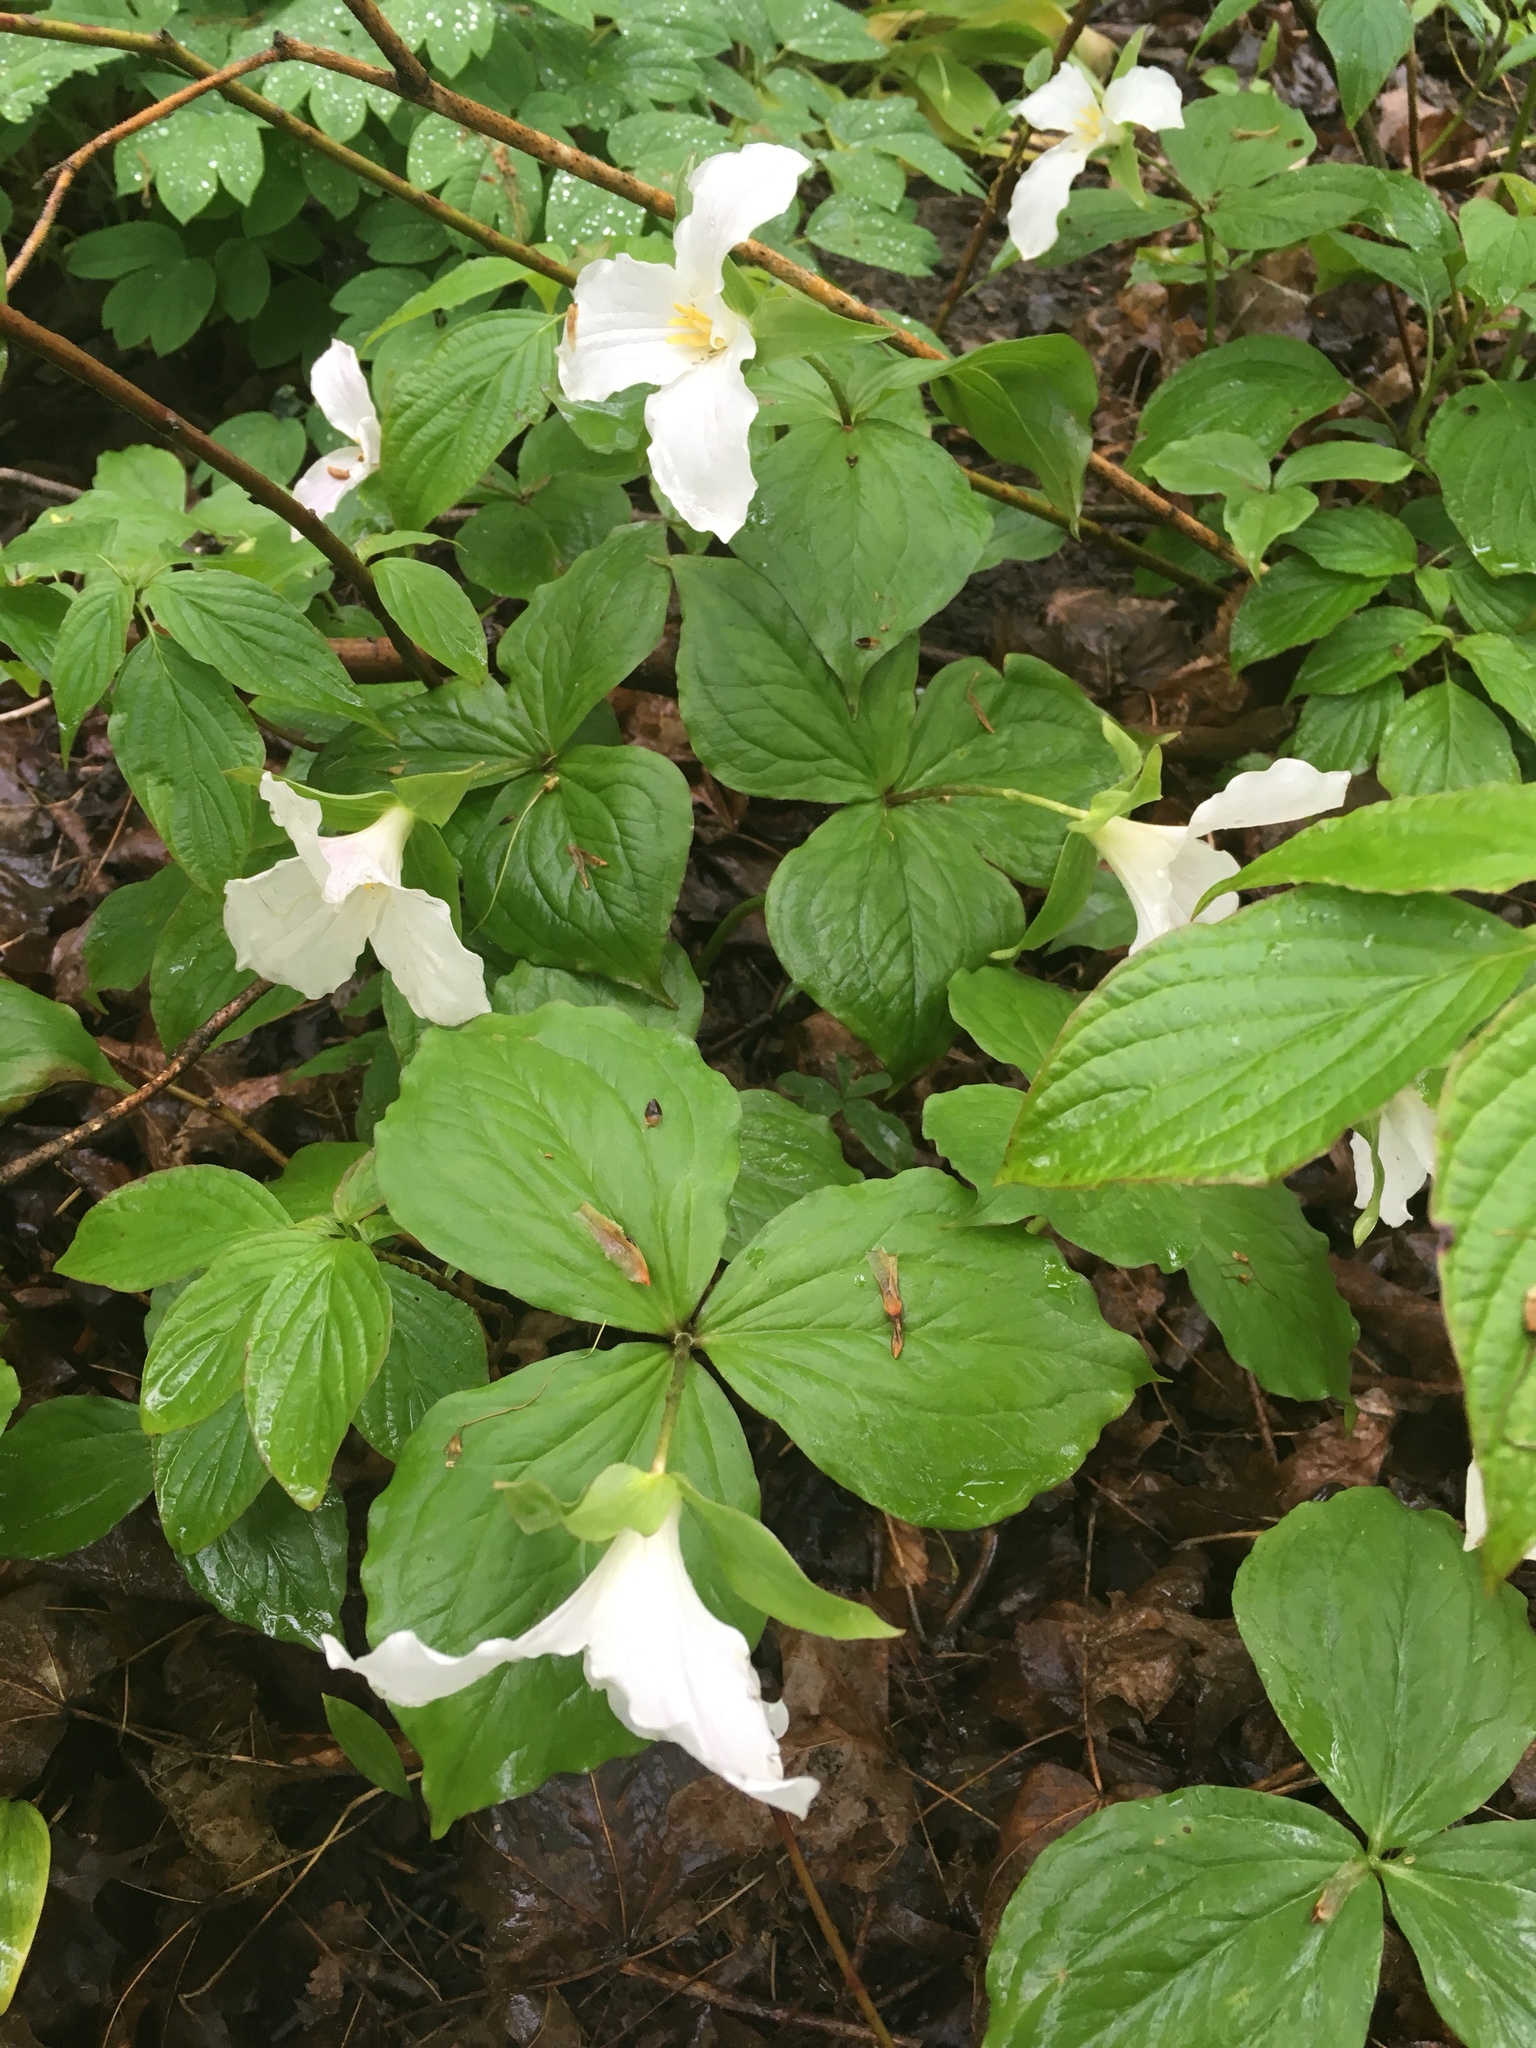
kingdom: Plantae
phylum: Tracheophyta
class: Liliopsida
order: Liliales
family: Melanthiaceae
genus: Trillium
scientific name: Trillium grandiflorum
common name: Great white trillium
